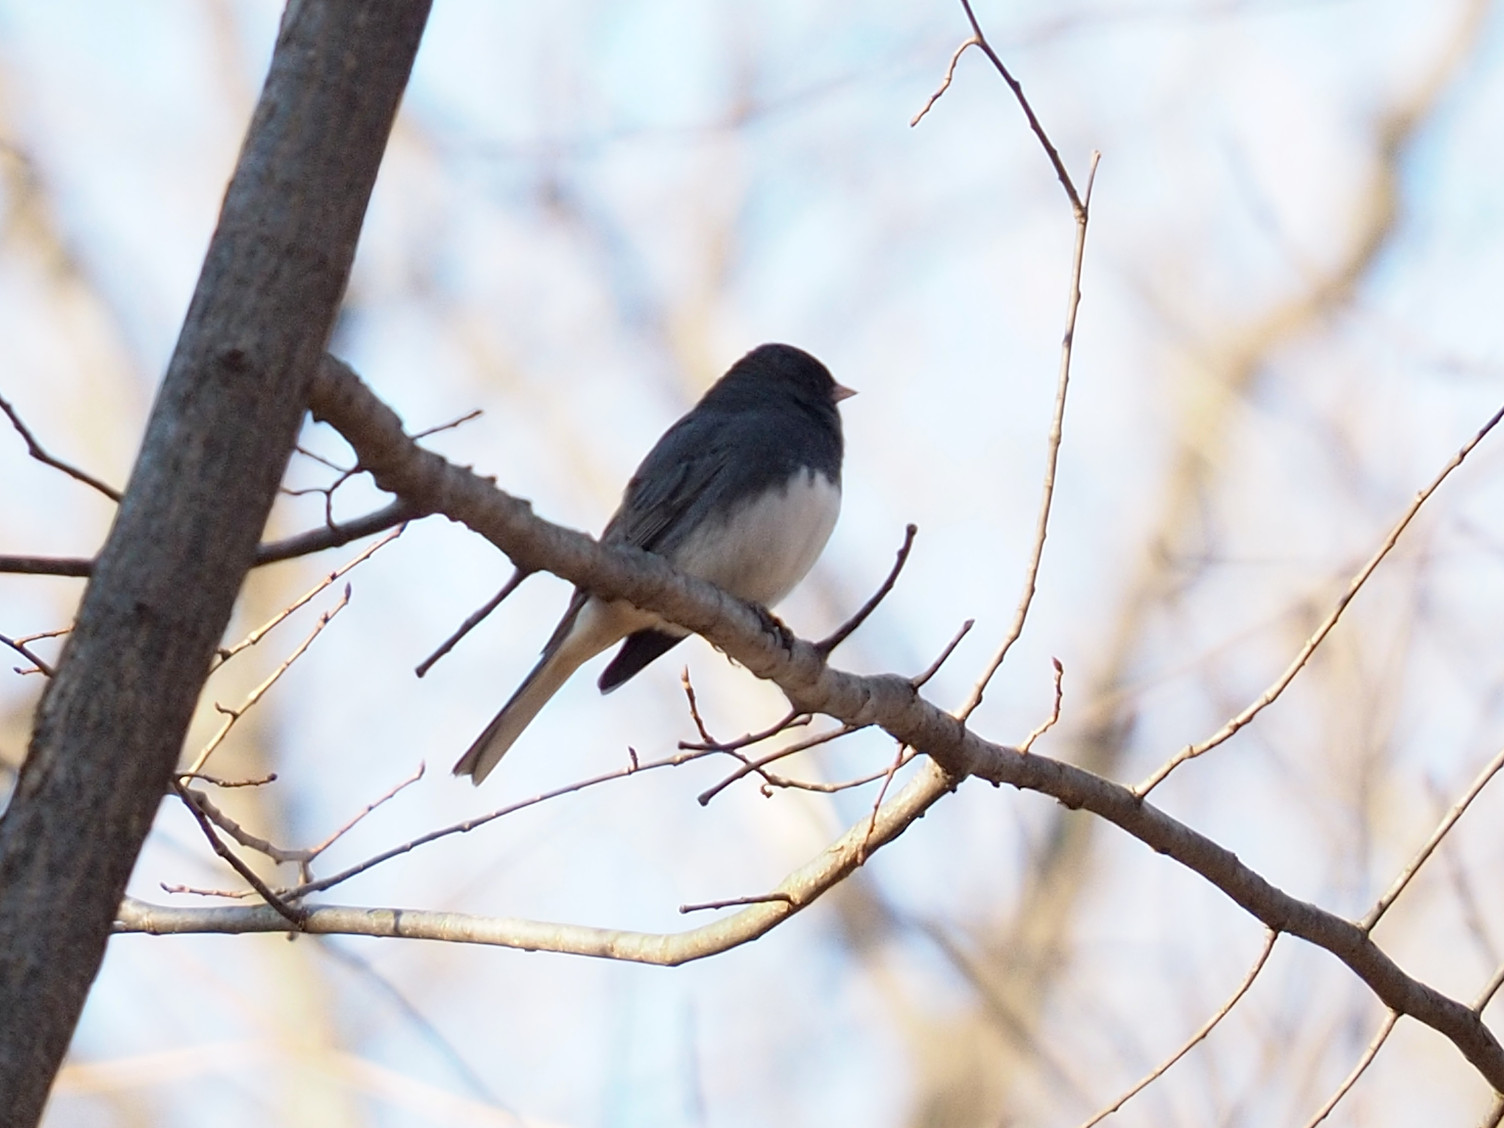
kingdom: Animalia
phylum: Chordata
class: Aves
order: Passeriformes
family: Passerellidae
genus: Junco
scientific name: Junco hyemalis
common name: Dark-eyed junco
